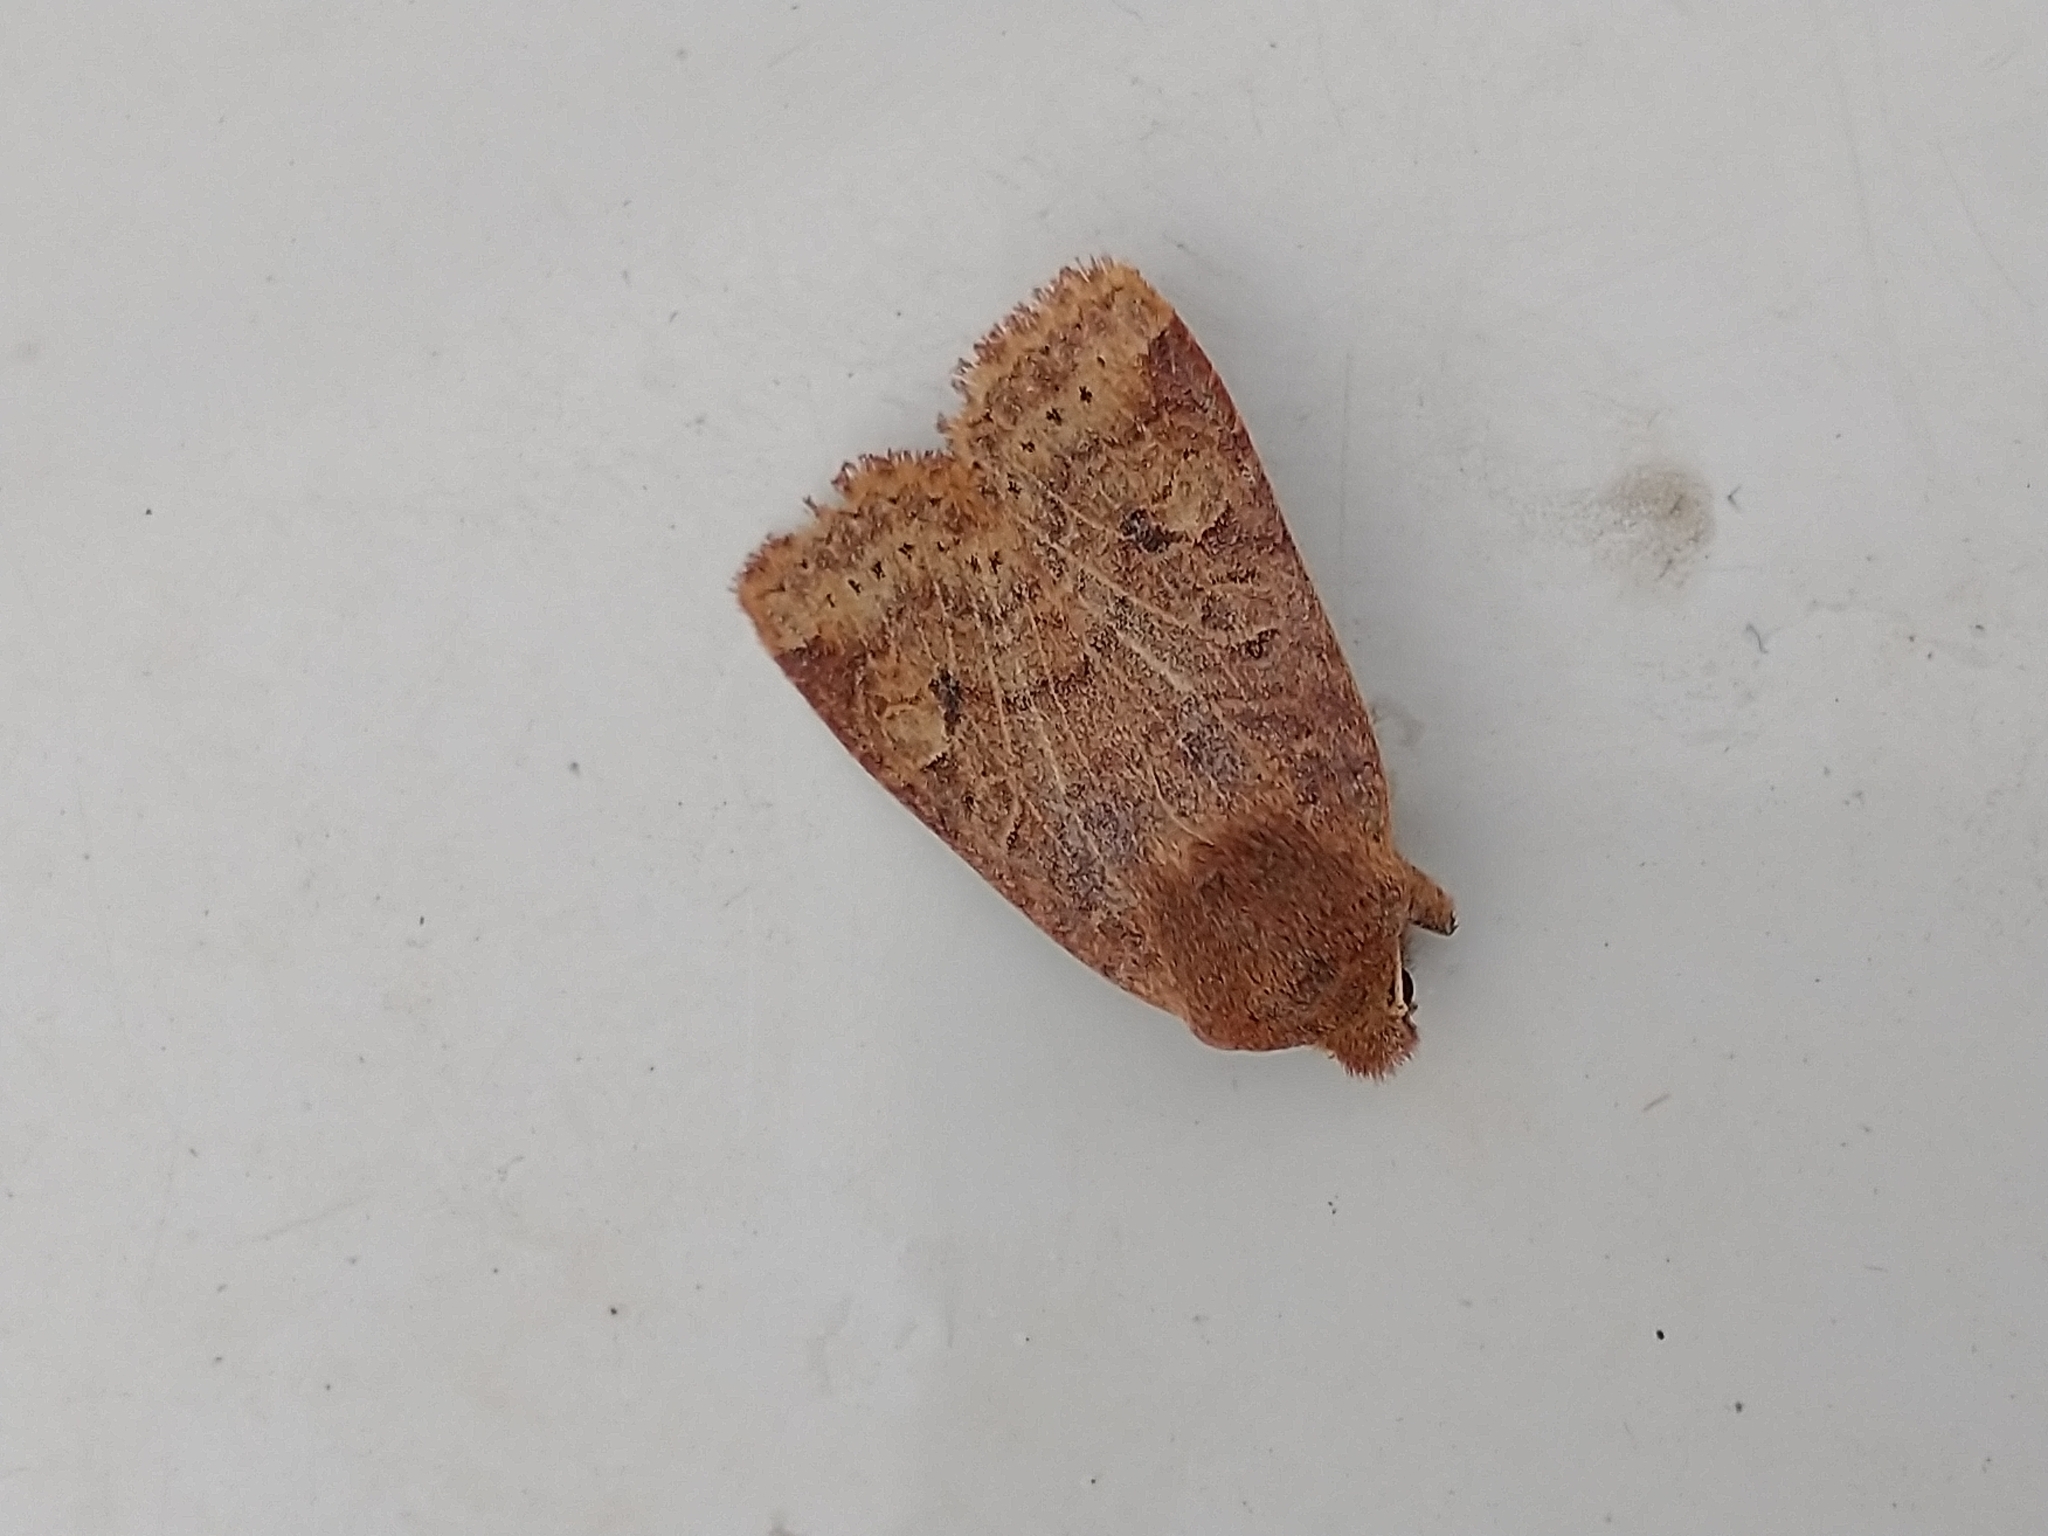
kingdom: Animalia
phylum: Arthropoda
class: Insecta
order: Lepidoptera
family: Noctuidae
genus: Conistra
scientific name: Conistra vaccinii
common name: Chestnut
